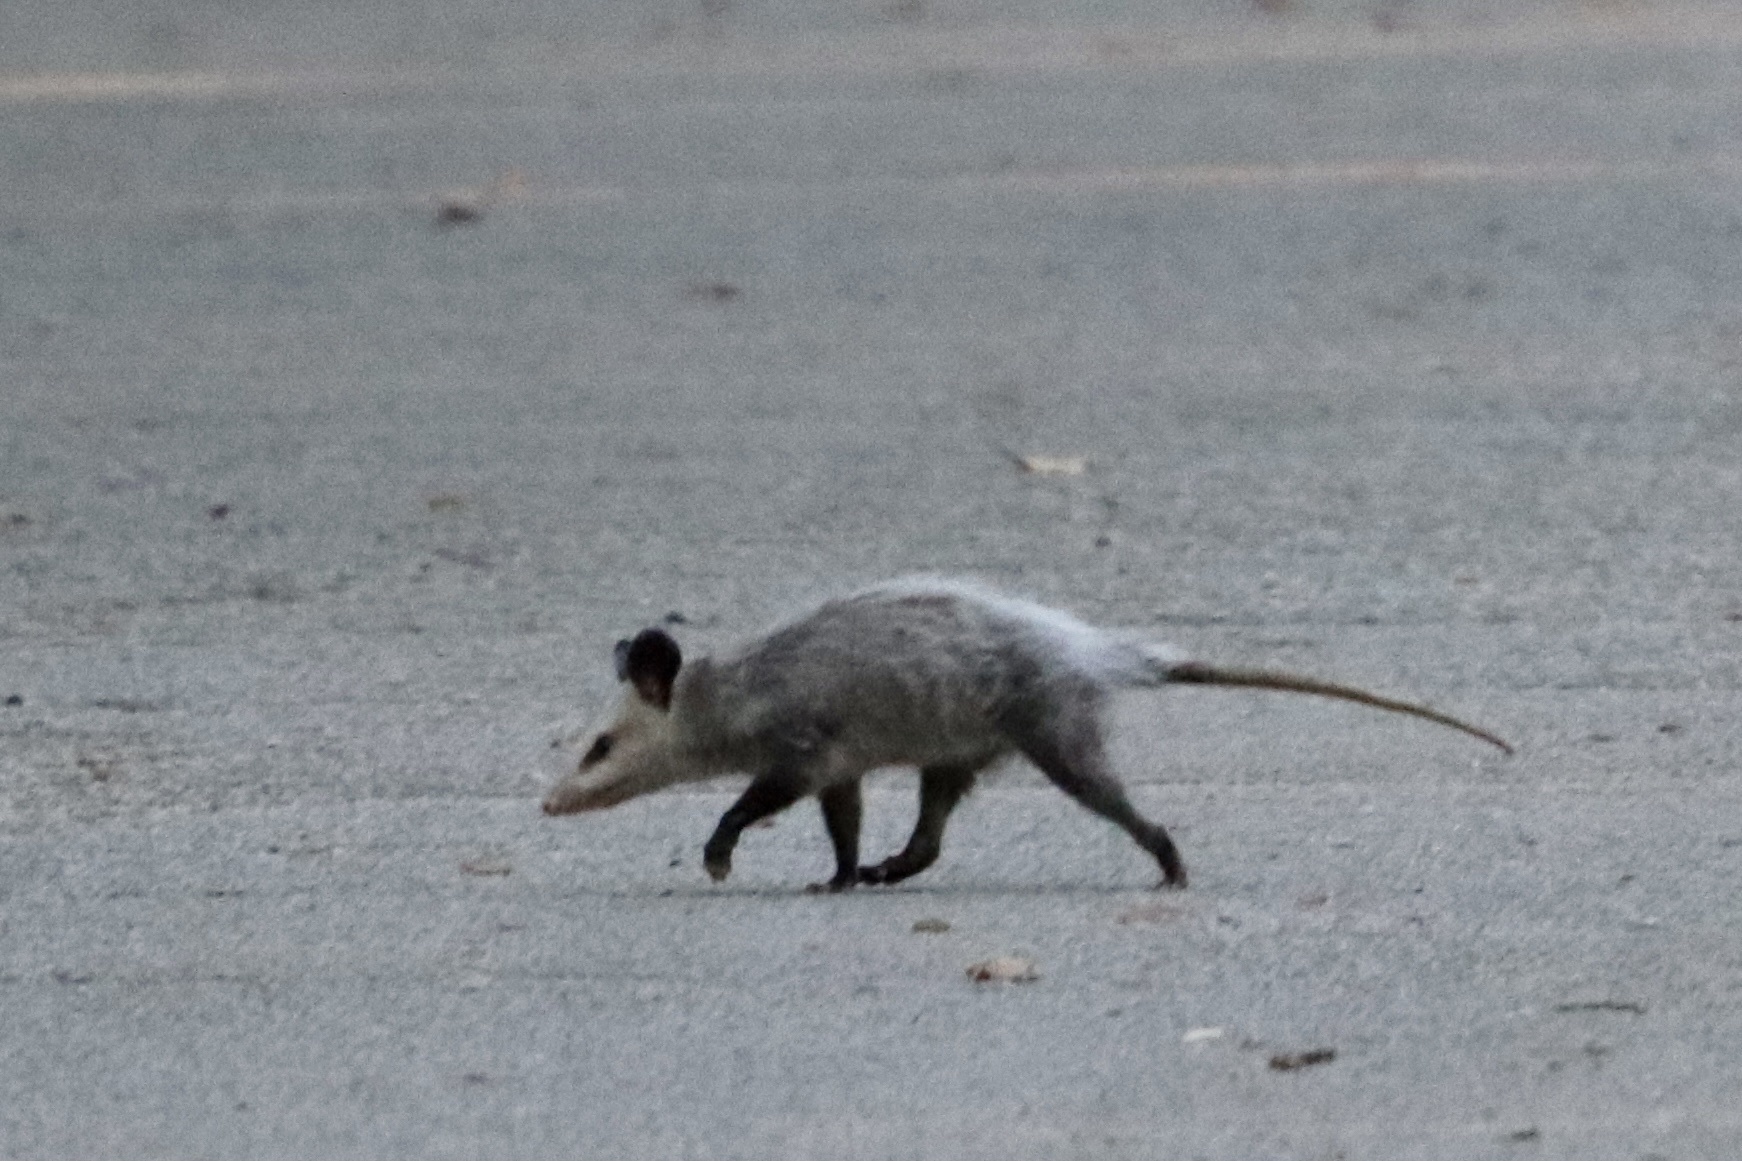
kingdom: Animalia
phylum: Chordata
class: Mammalia
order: Didelphimorphia
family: Didelphidae
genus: Didelphis
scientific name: Didelphis virginiana
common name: Virginia opossum
